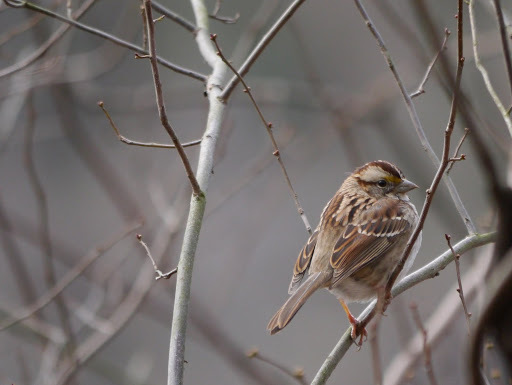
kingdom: Animalia
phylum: Chordata
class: Aves
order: Passeriformes
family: Passerellidae
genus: Zonotrichia
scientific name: Zonotrichia albicollis
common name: White-throated sparrow
